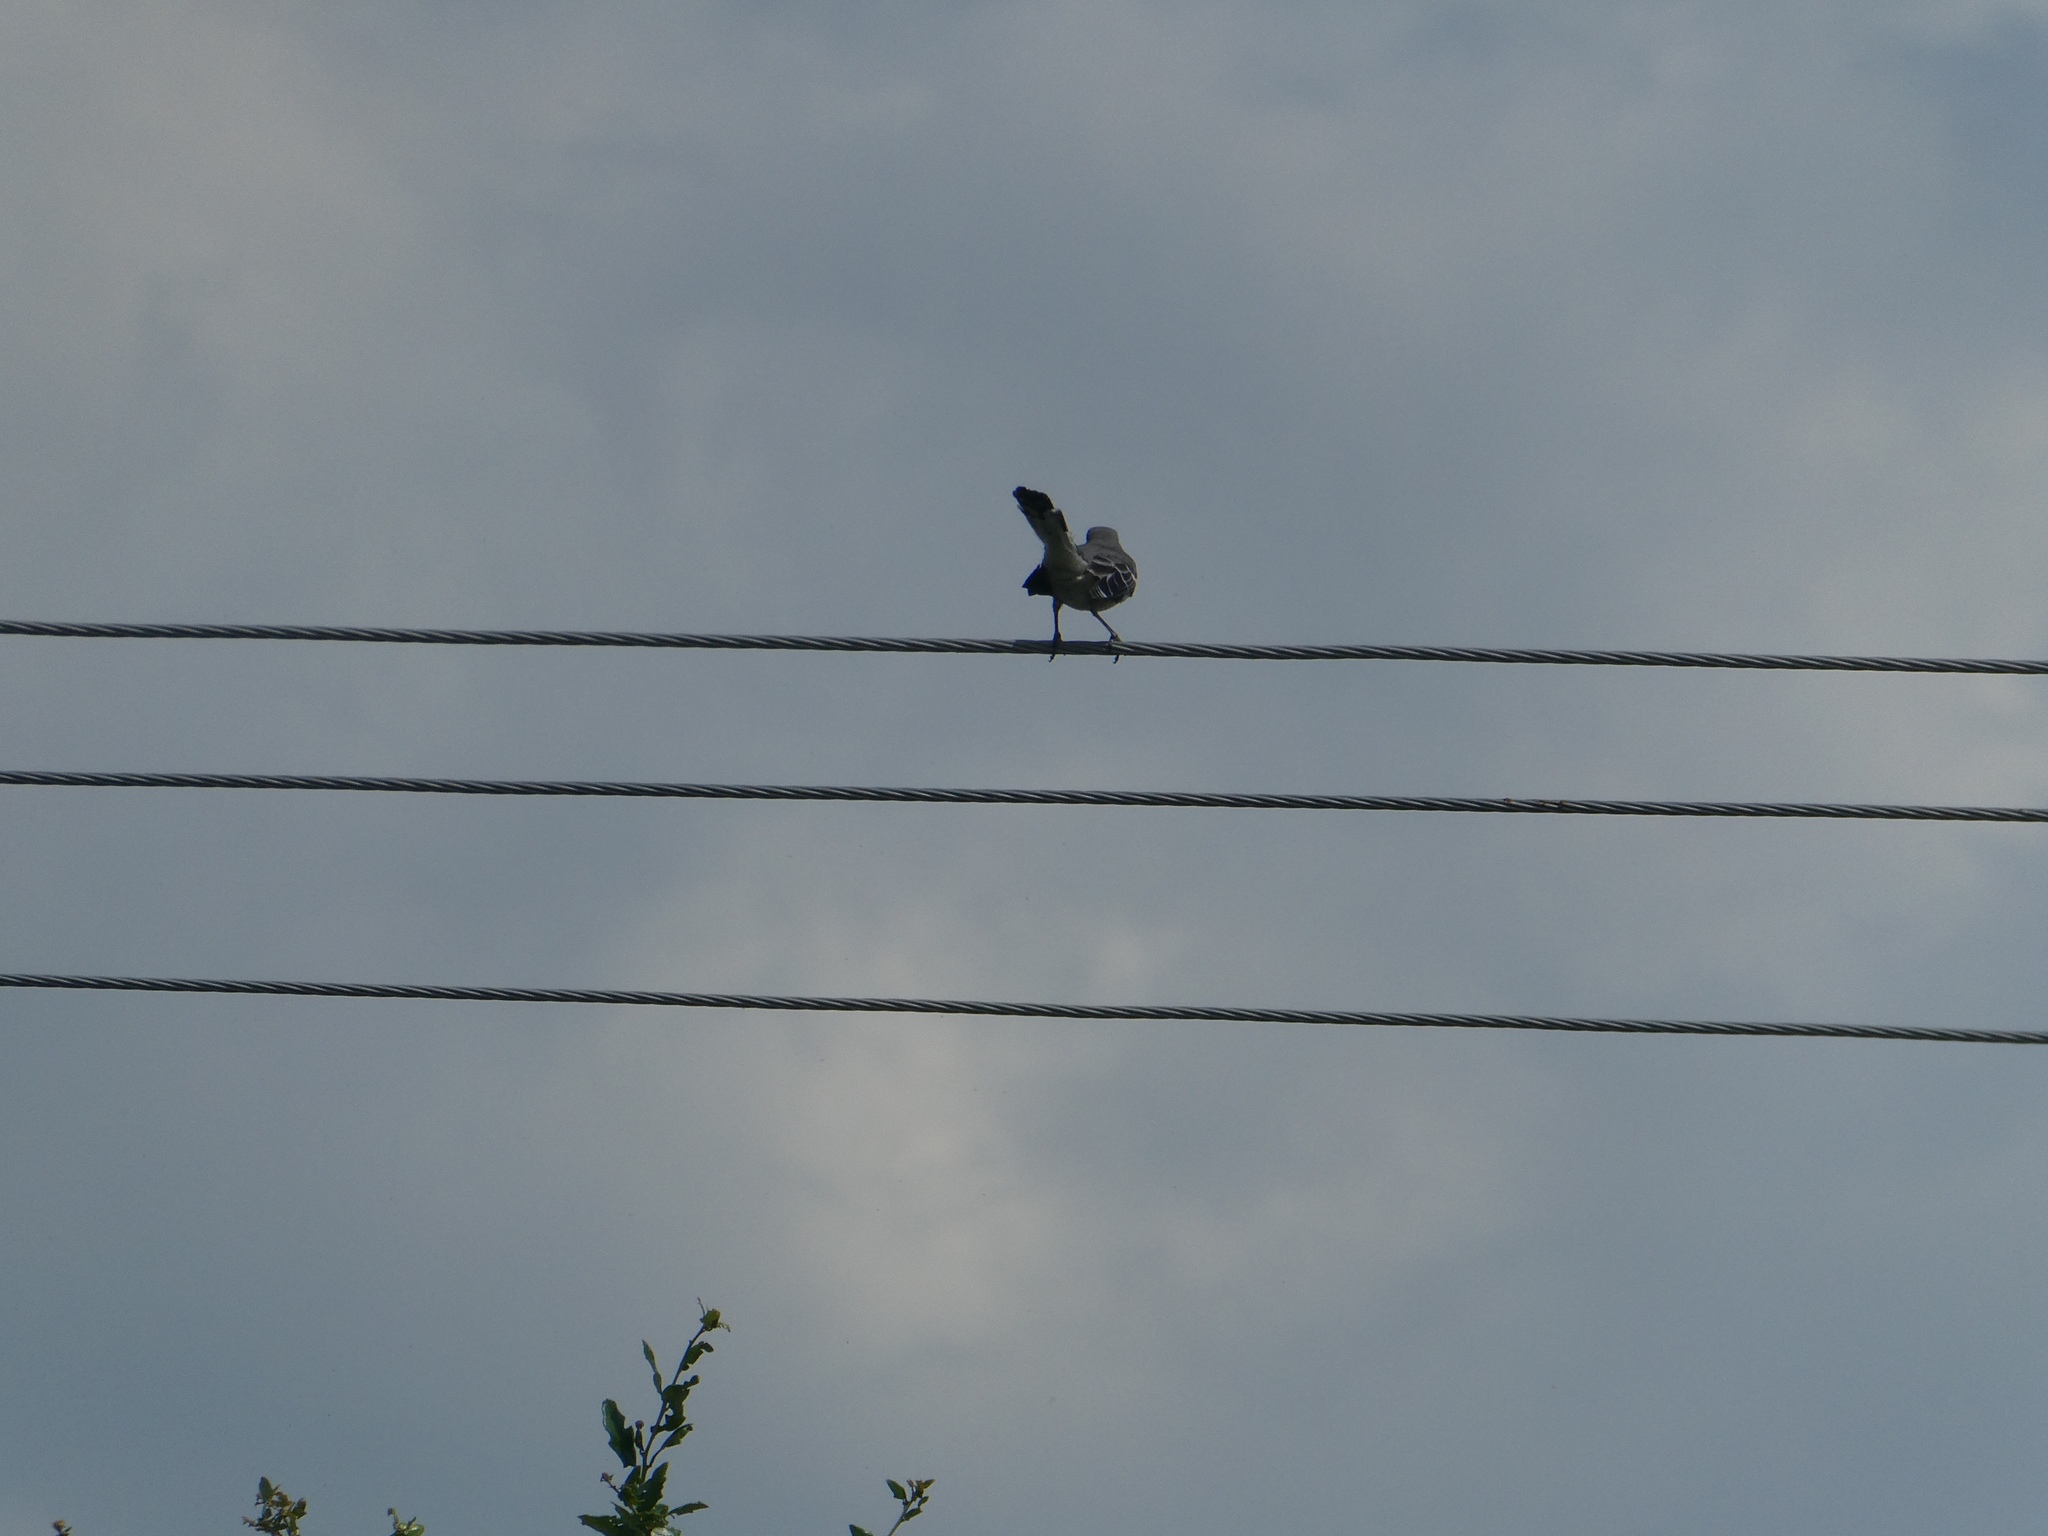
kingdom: Animalia
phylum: Chordata
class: Aves
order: Passeriformes
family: Mimidae
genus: Mimus
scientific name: Mimus polyglottos
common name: Northern mockingbird
